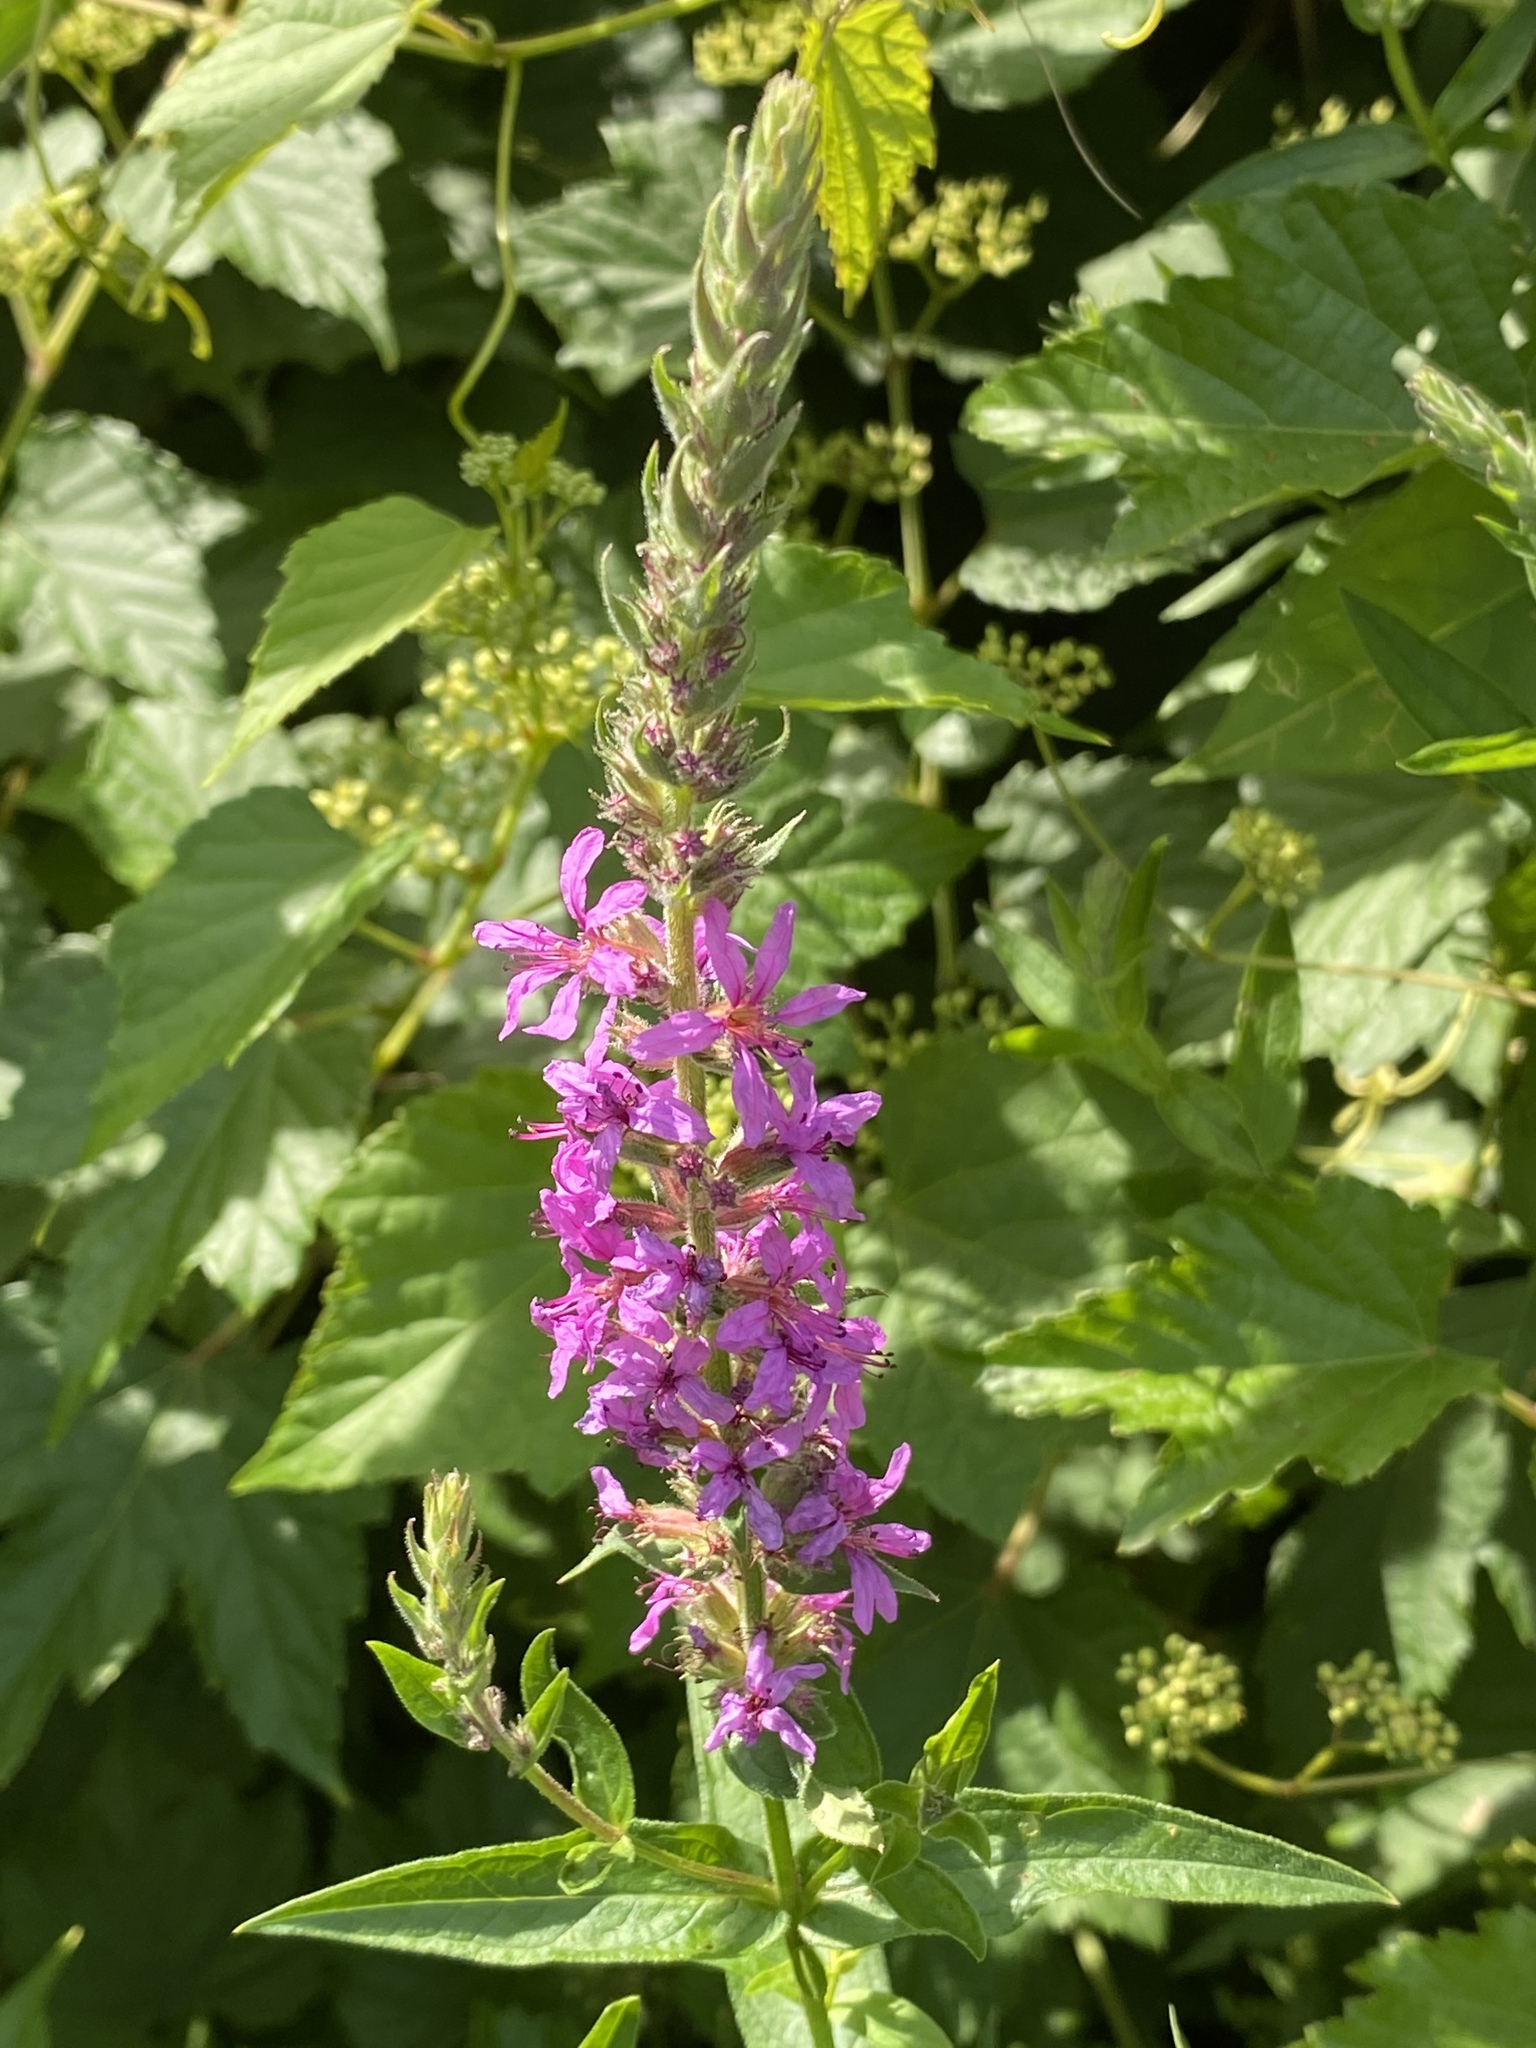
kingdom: Plantae
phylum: Tracheophyta
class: Magnoliopsida
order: Myrtales
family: Lythraceae
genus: Lythrum
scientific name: Lythrum salicaria
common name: Purple loosestrife
